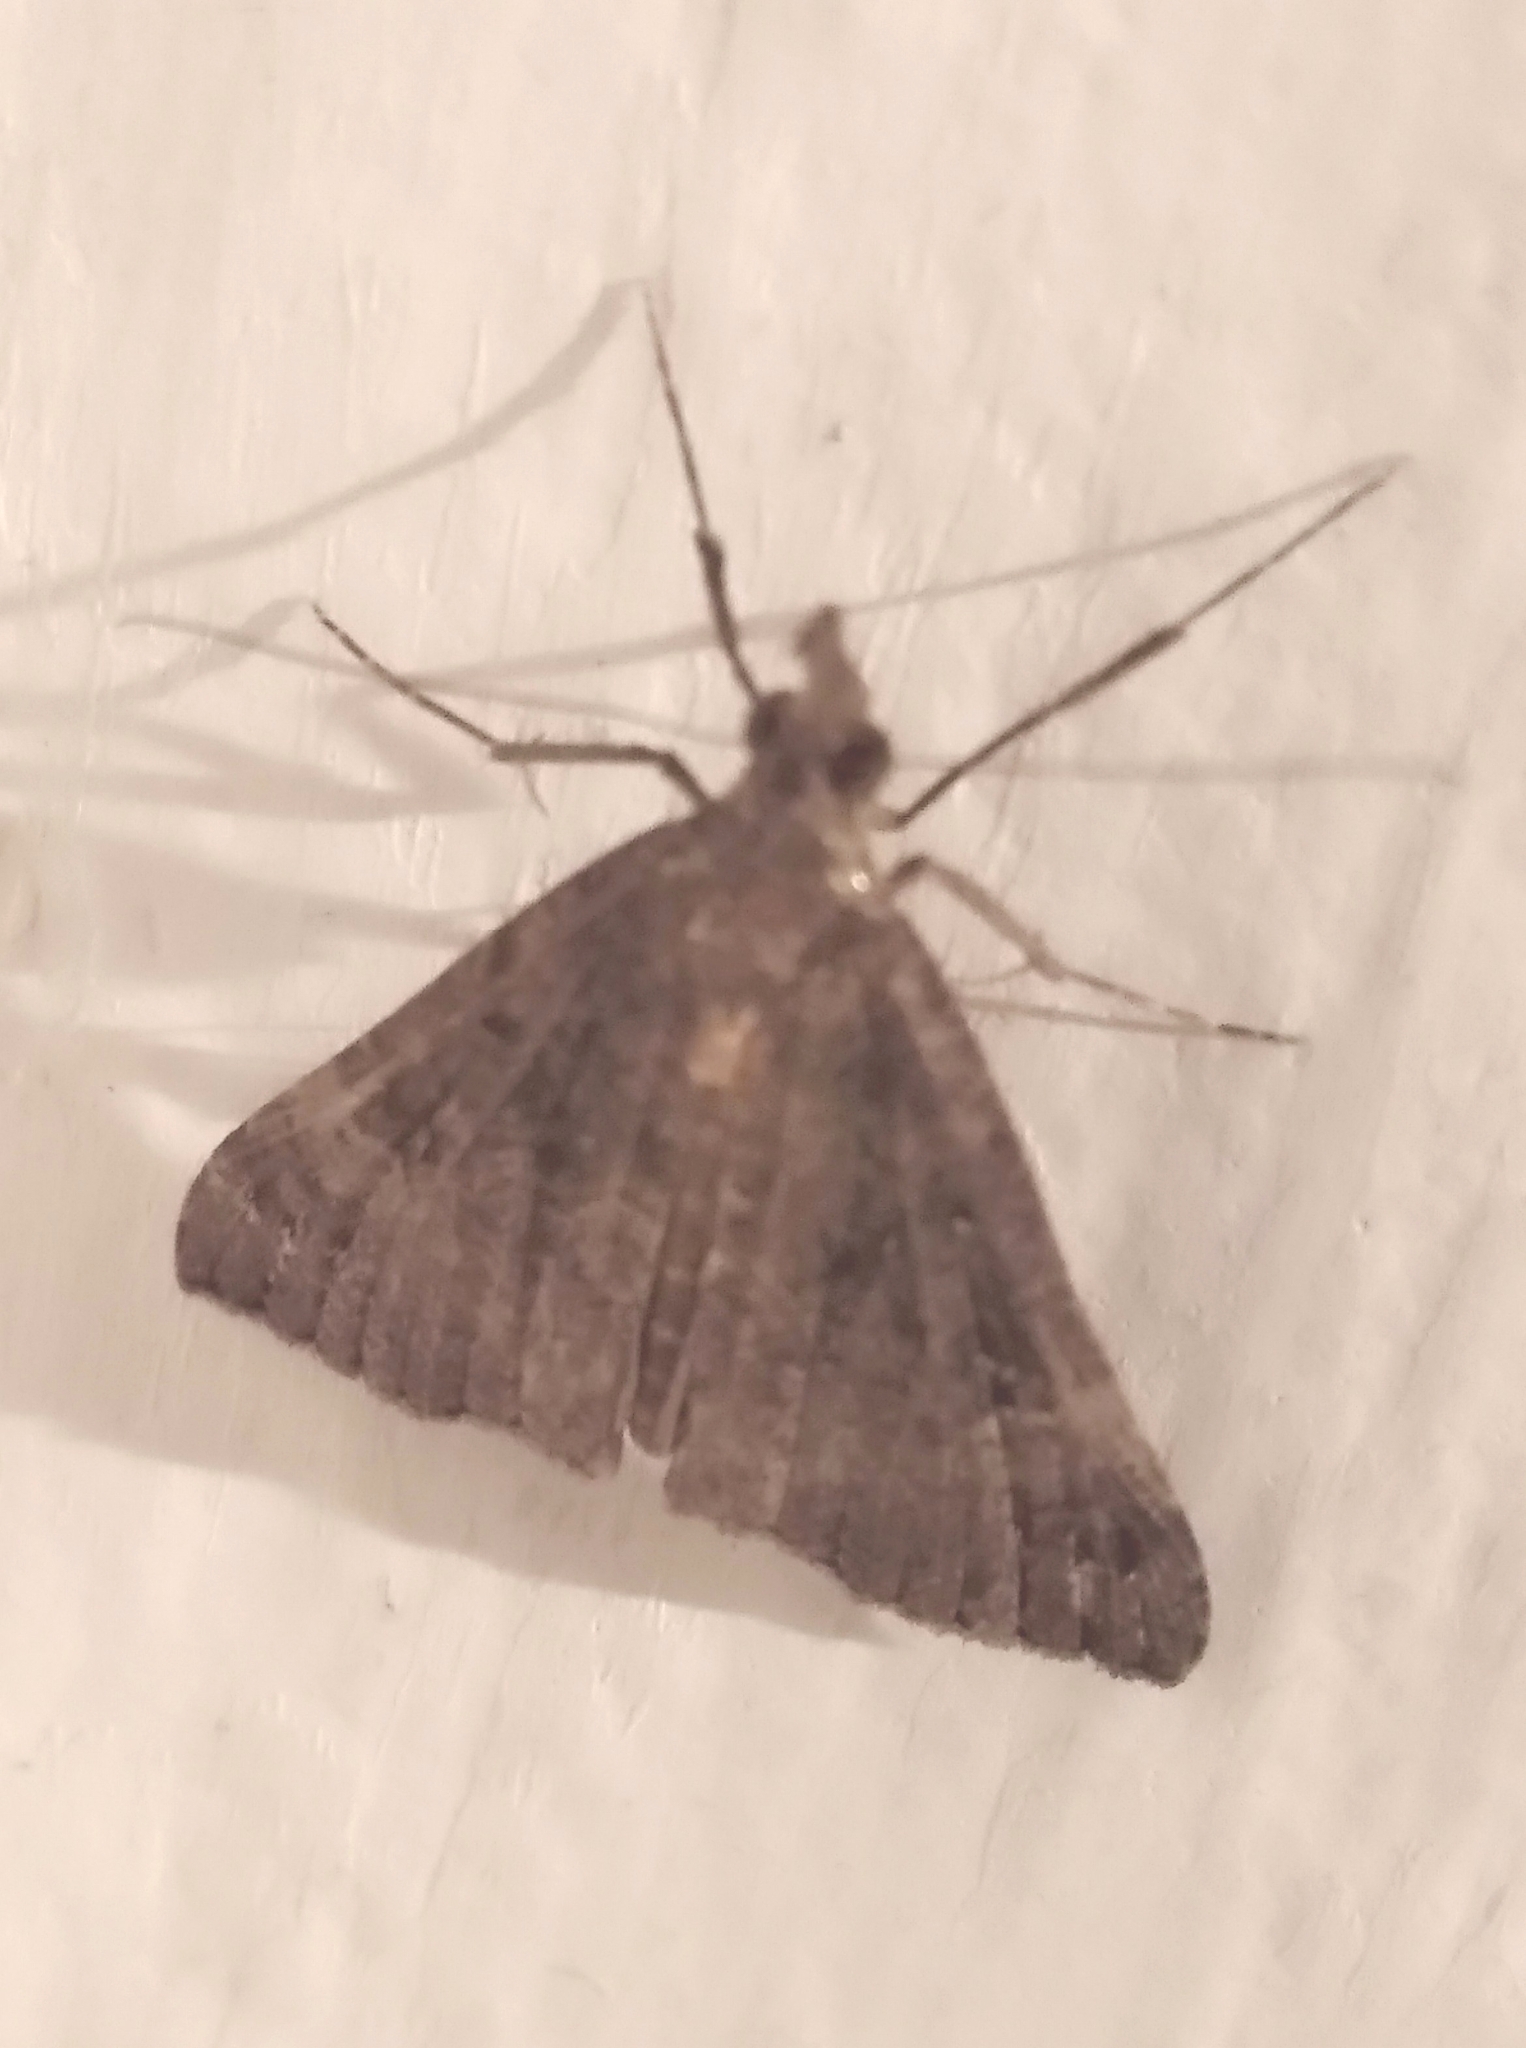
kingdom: Animalia
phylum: Arthropoda
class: Insecta
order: Lepidoptera
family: Erebidae
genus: Hypena
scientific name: Hypena obsitalis
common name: Bloxworth snout
